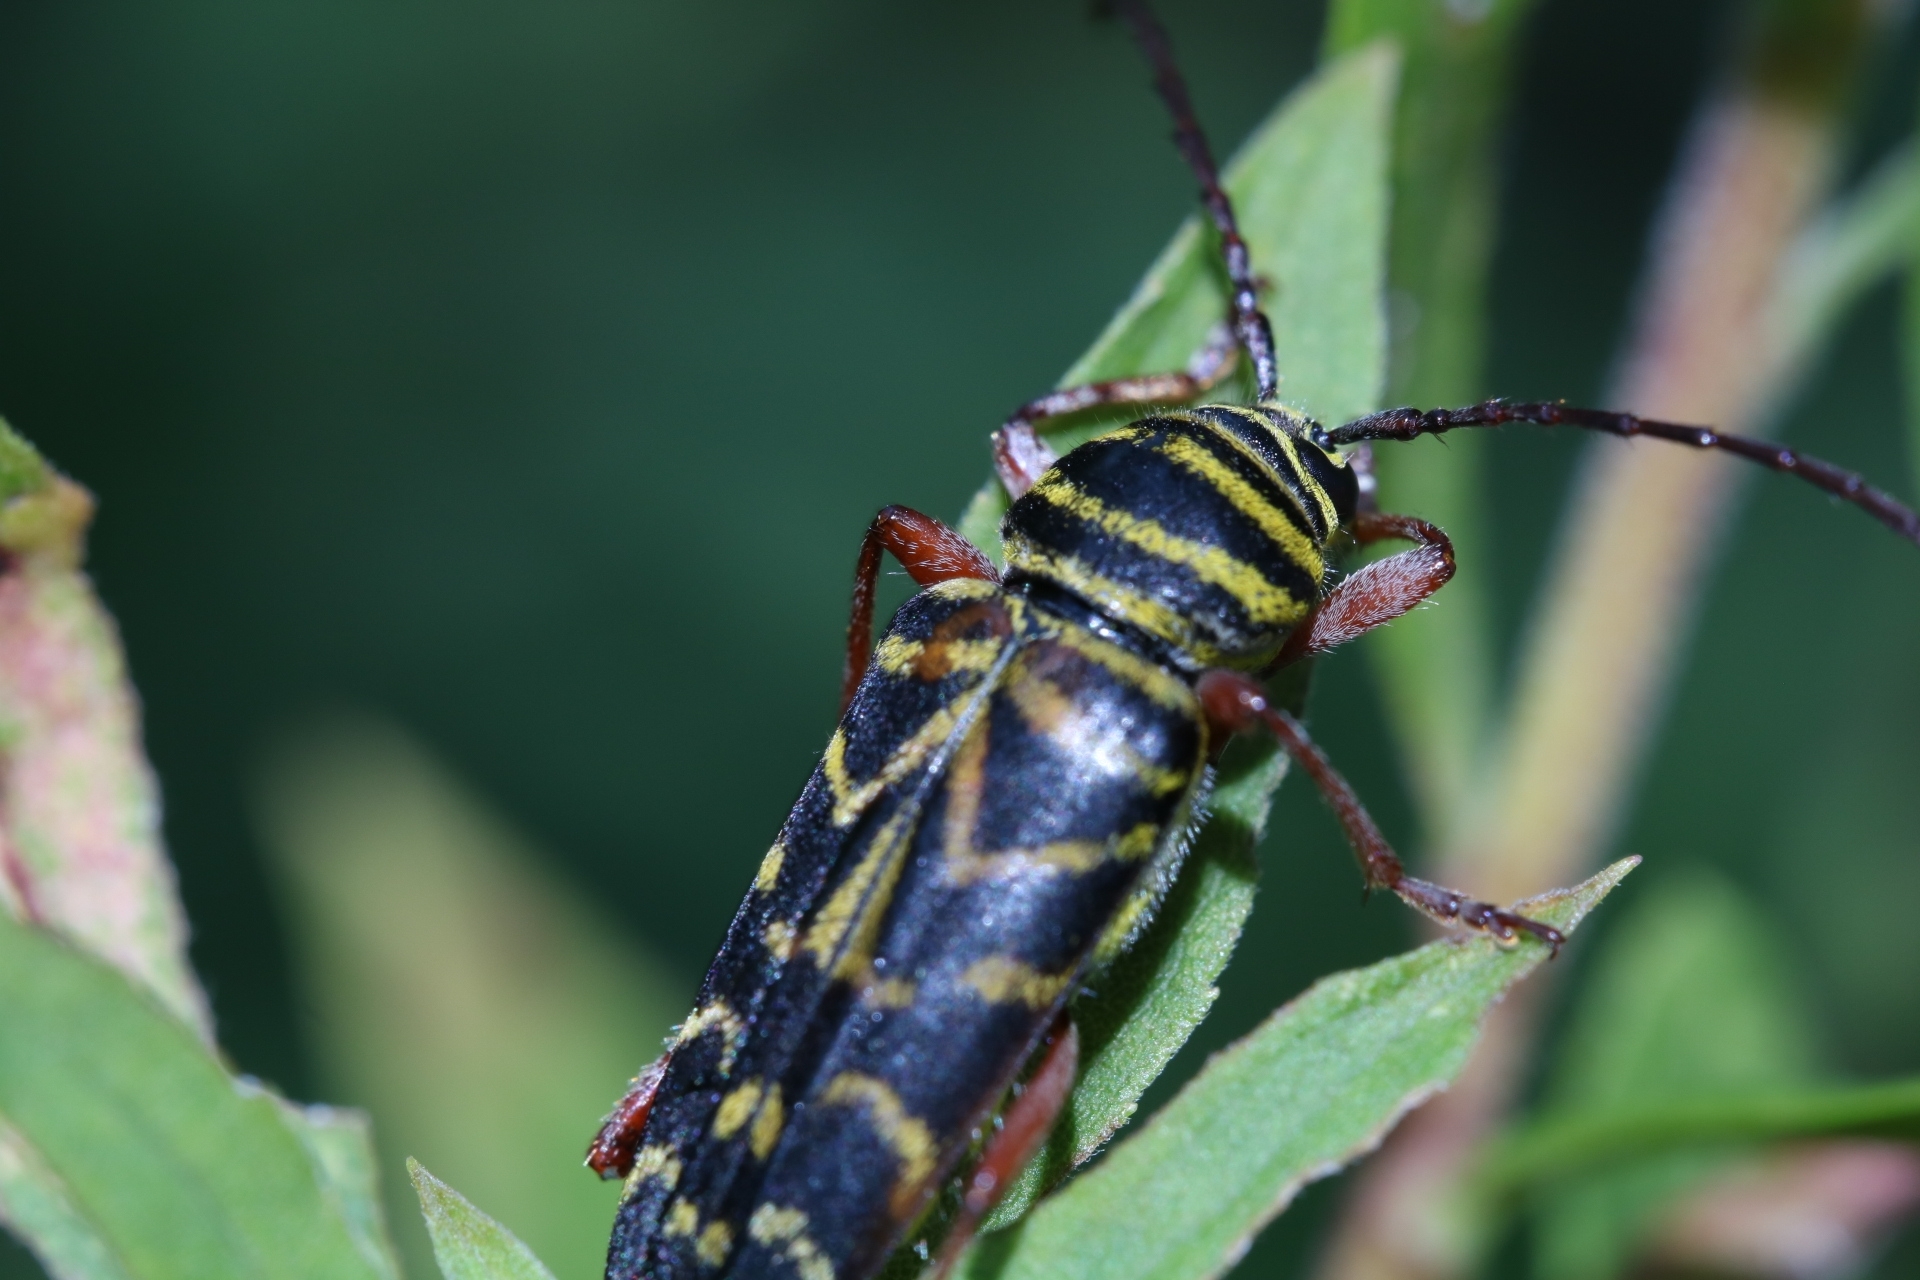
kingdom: Animalia
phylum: Arthropoda
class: Insecta
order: Coleoptera
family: Cerambycidae
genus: Megacyllene
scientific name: Megacyllene robiniae
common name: Locust borer
